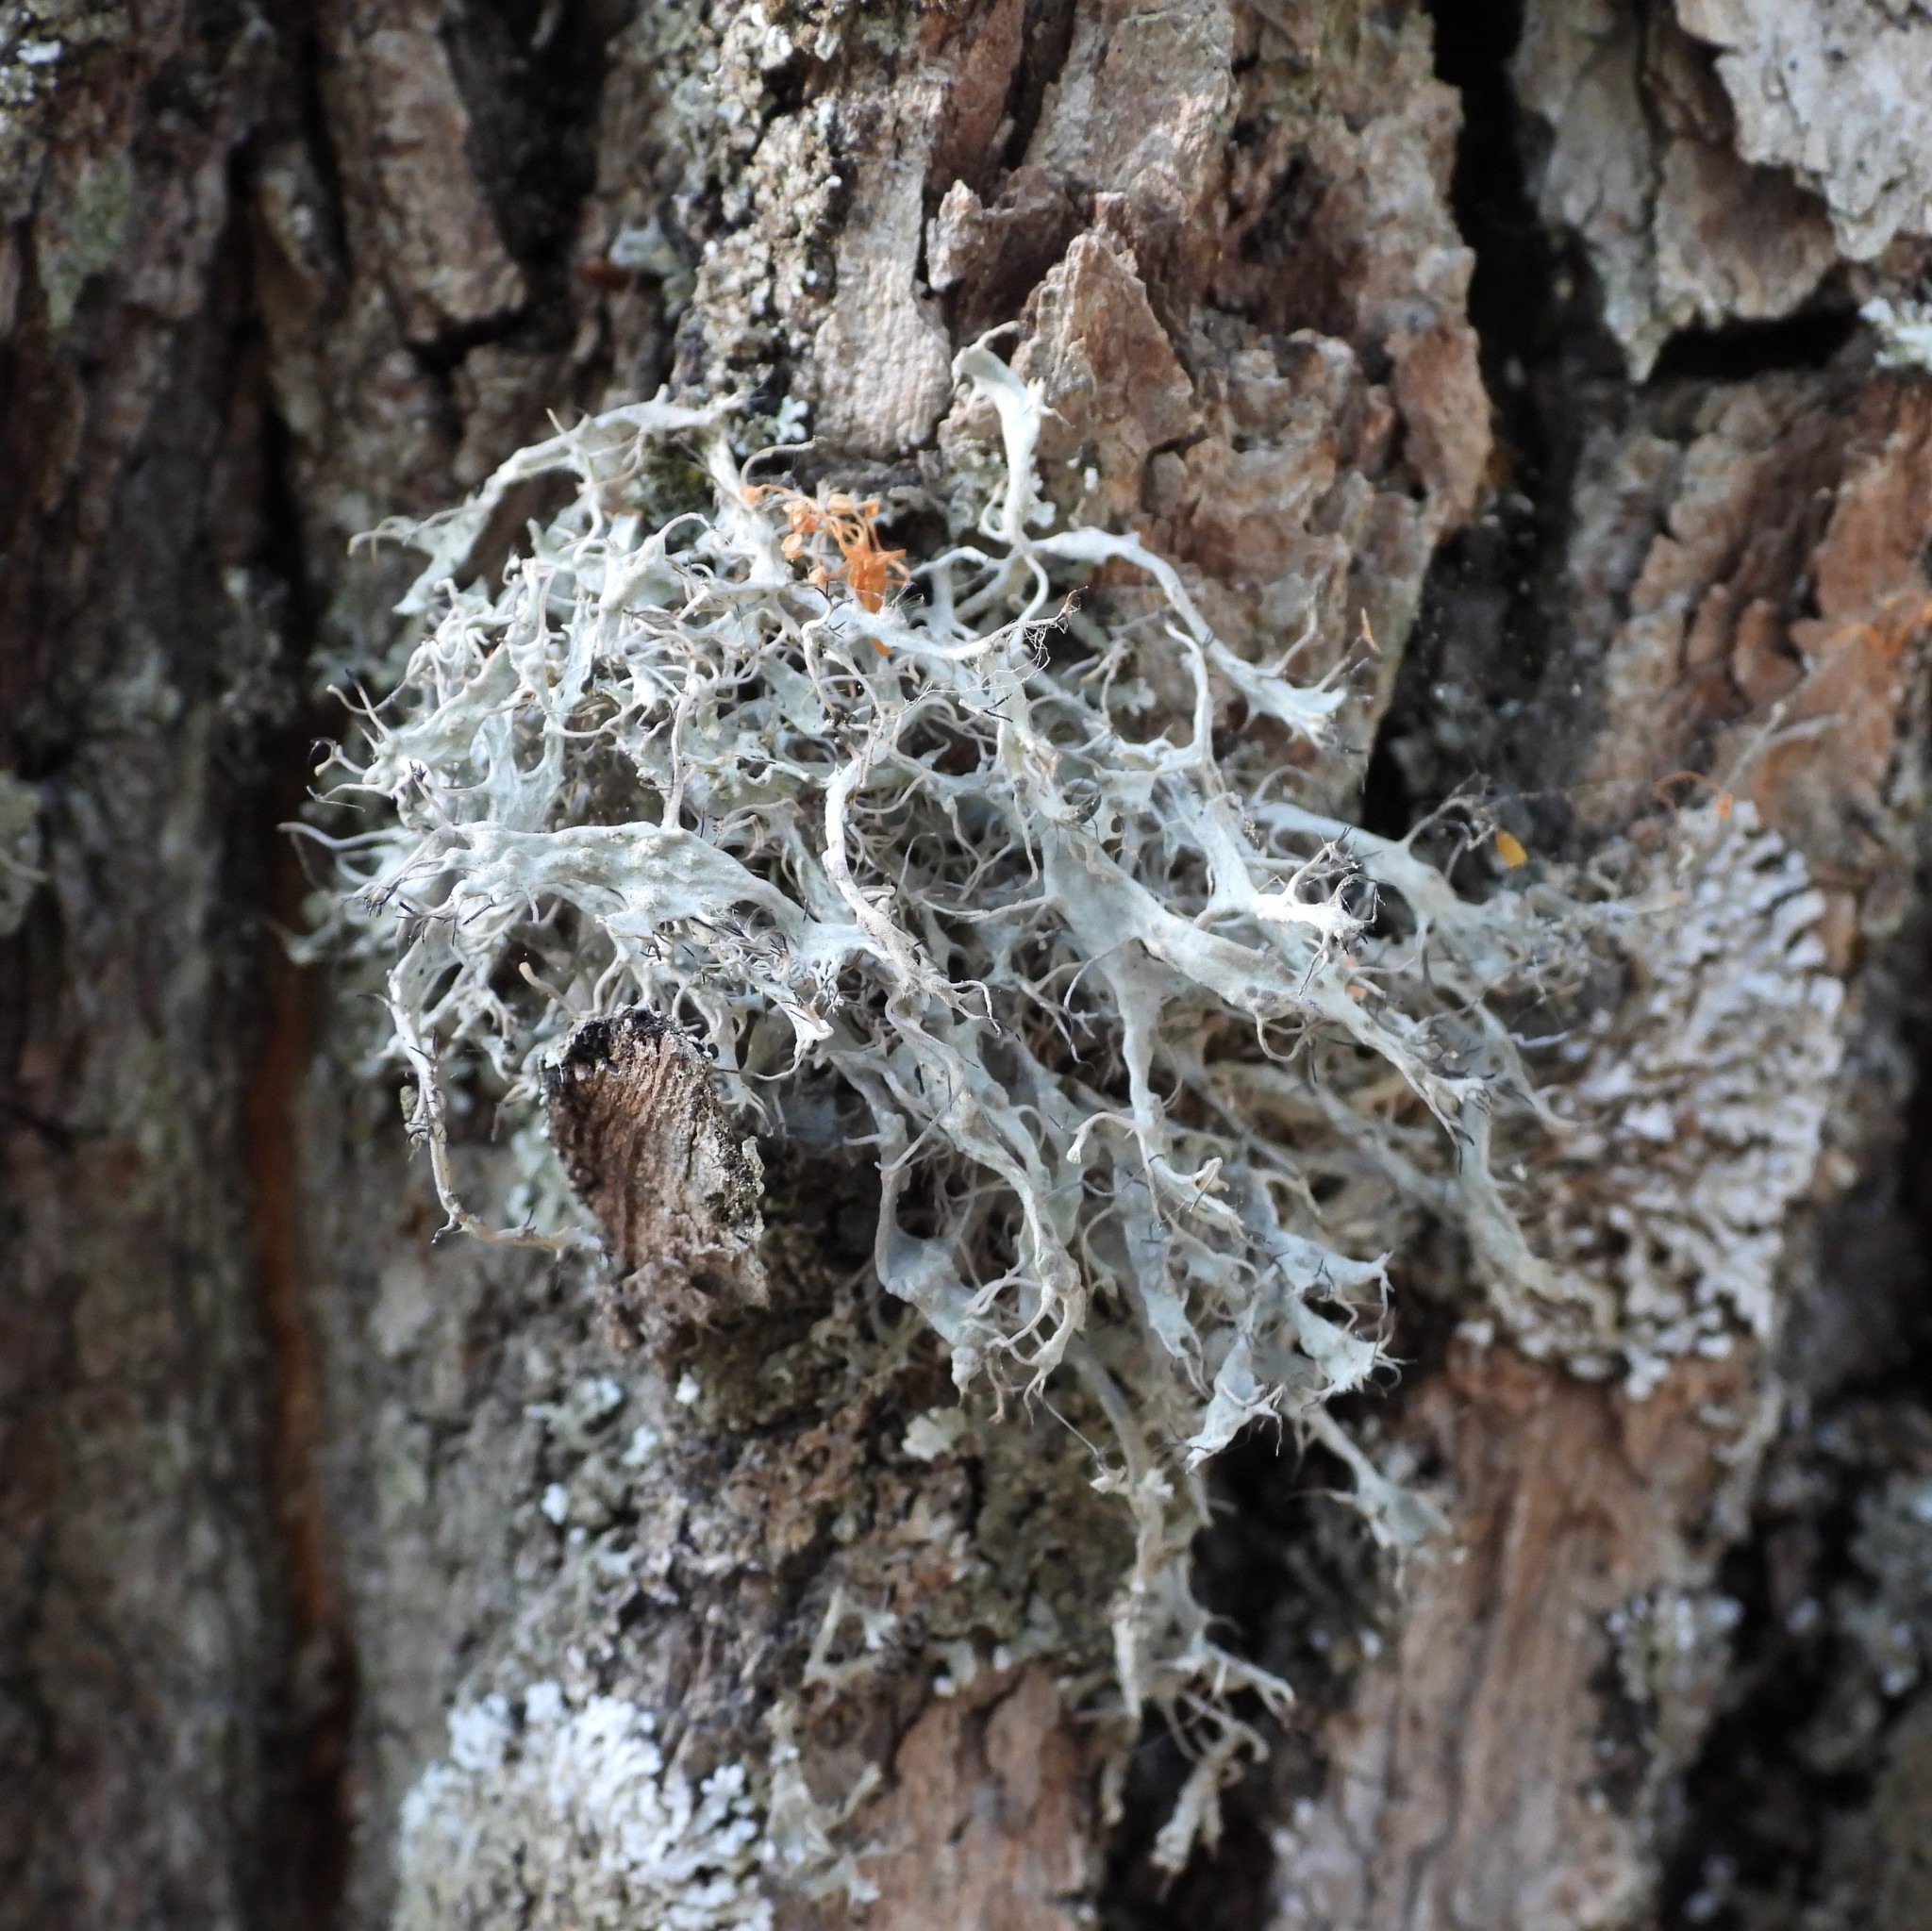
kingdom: Fungi
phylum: Ascomycota
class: Lecanoromycetes
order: Caliciales
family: Physciaceae
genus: Anaptychia
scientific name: Anaptychia ciliaris
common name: Great ciliated lichen
